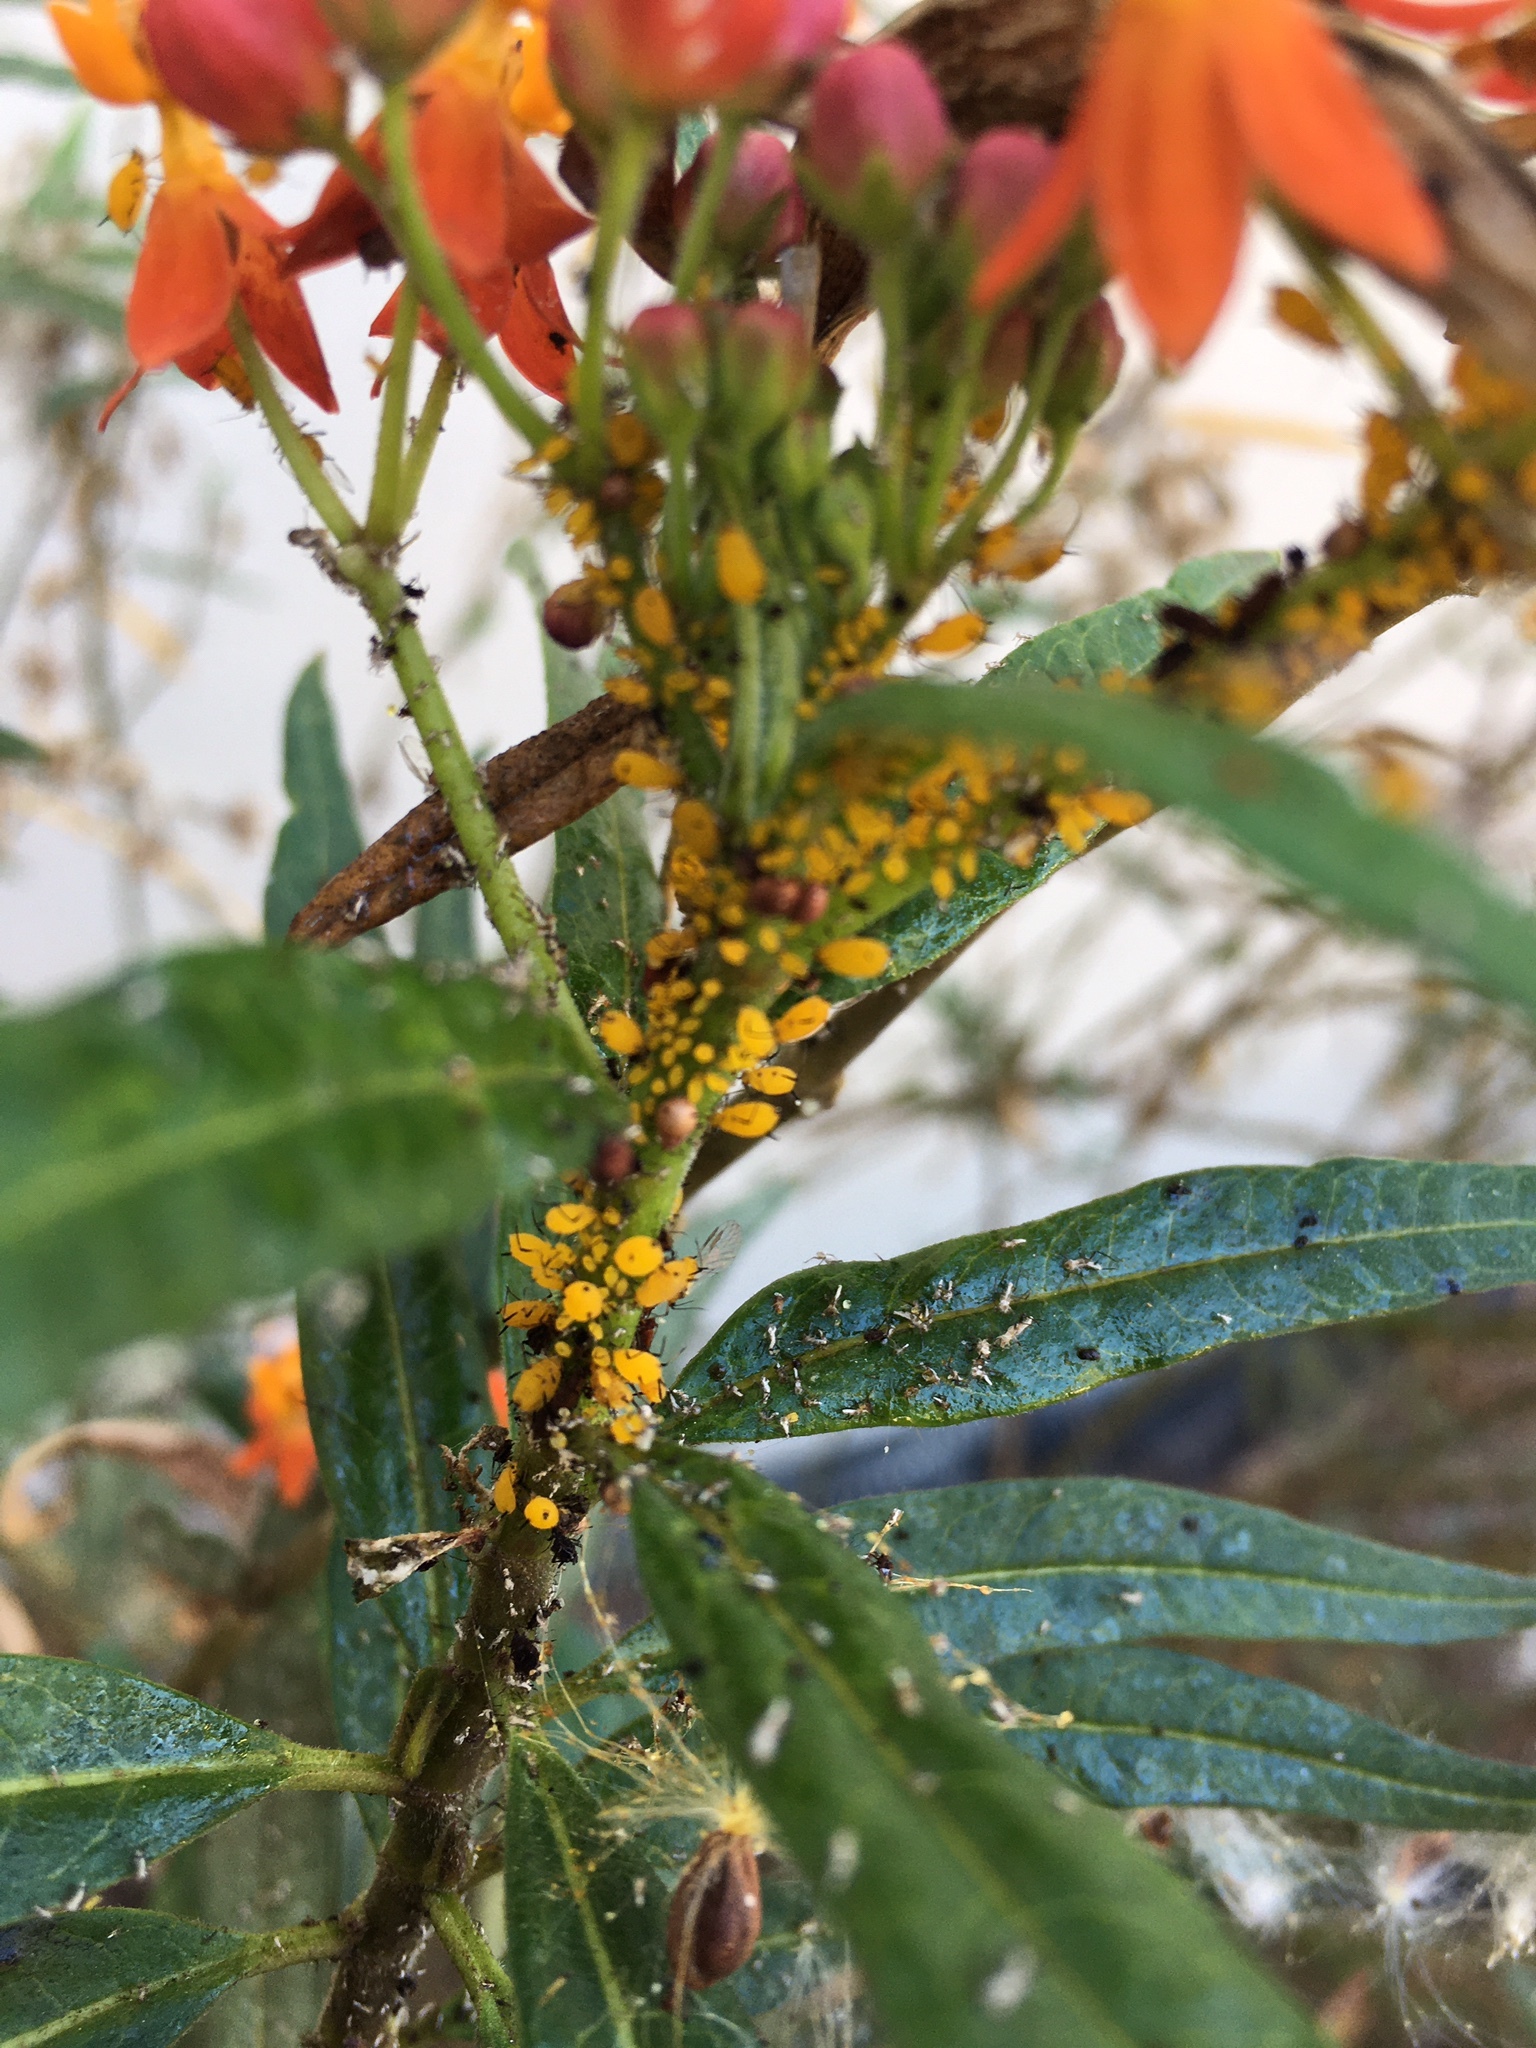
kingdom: Animalia
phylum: Arthropoda
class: Insecta
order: Hemiptera
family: Aphididae
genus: Aphis
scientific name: Aphis nerii
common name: Oleander aphid
